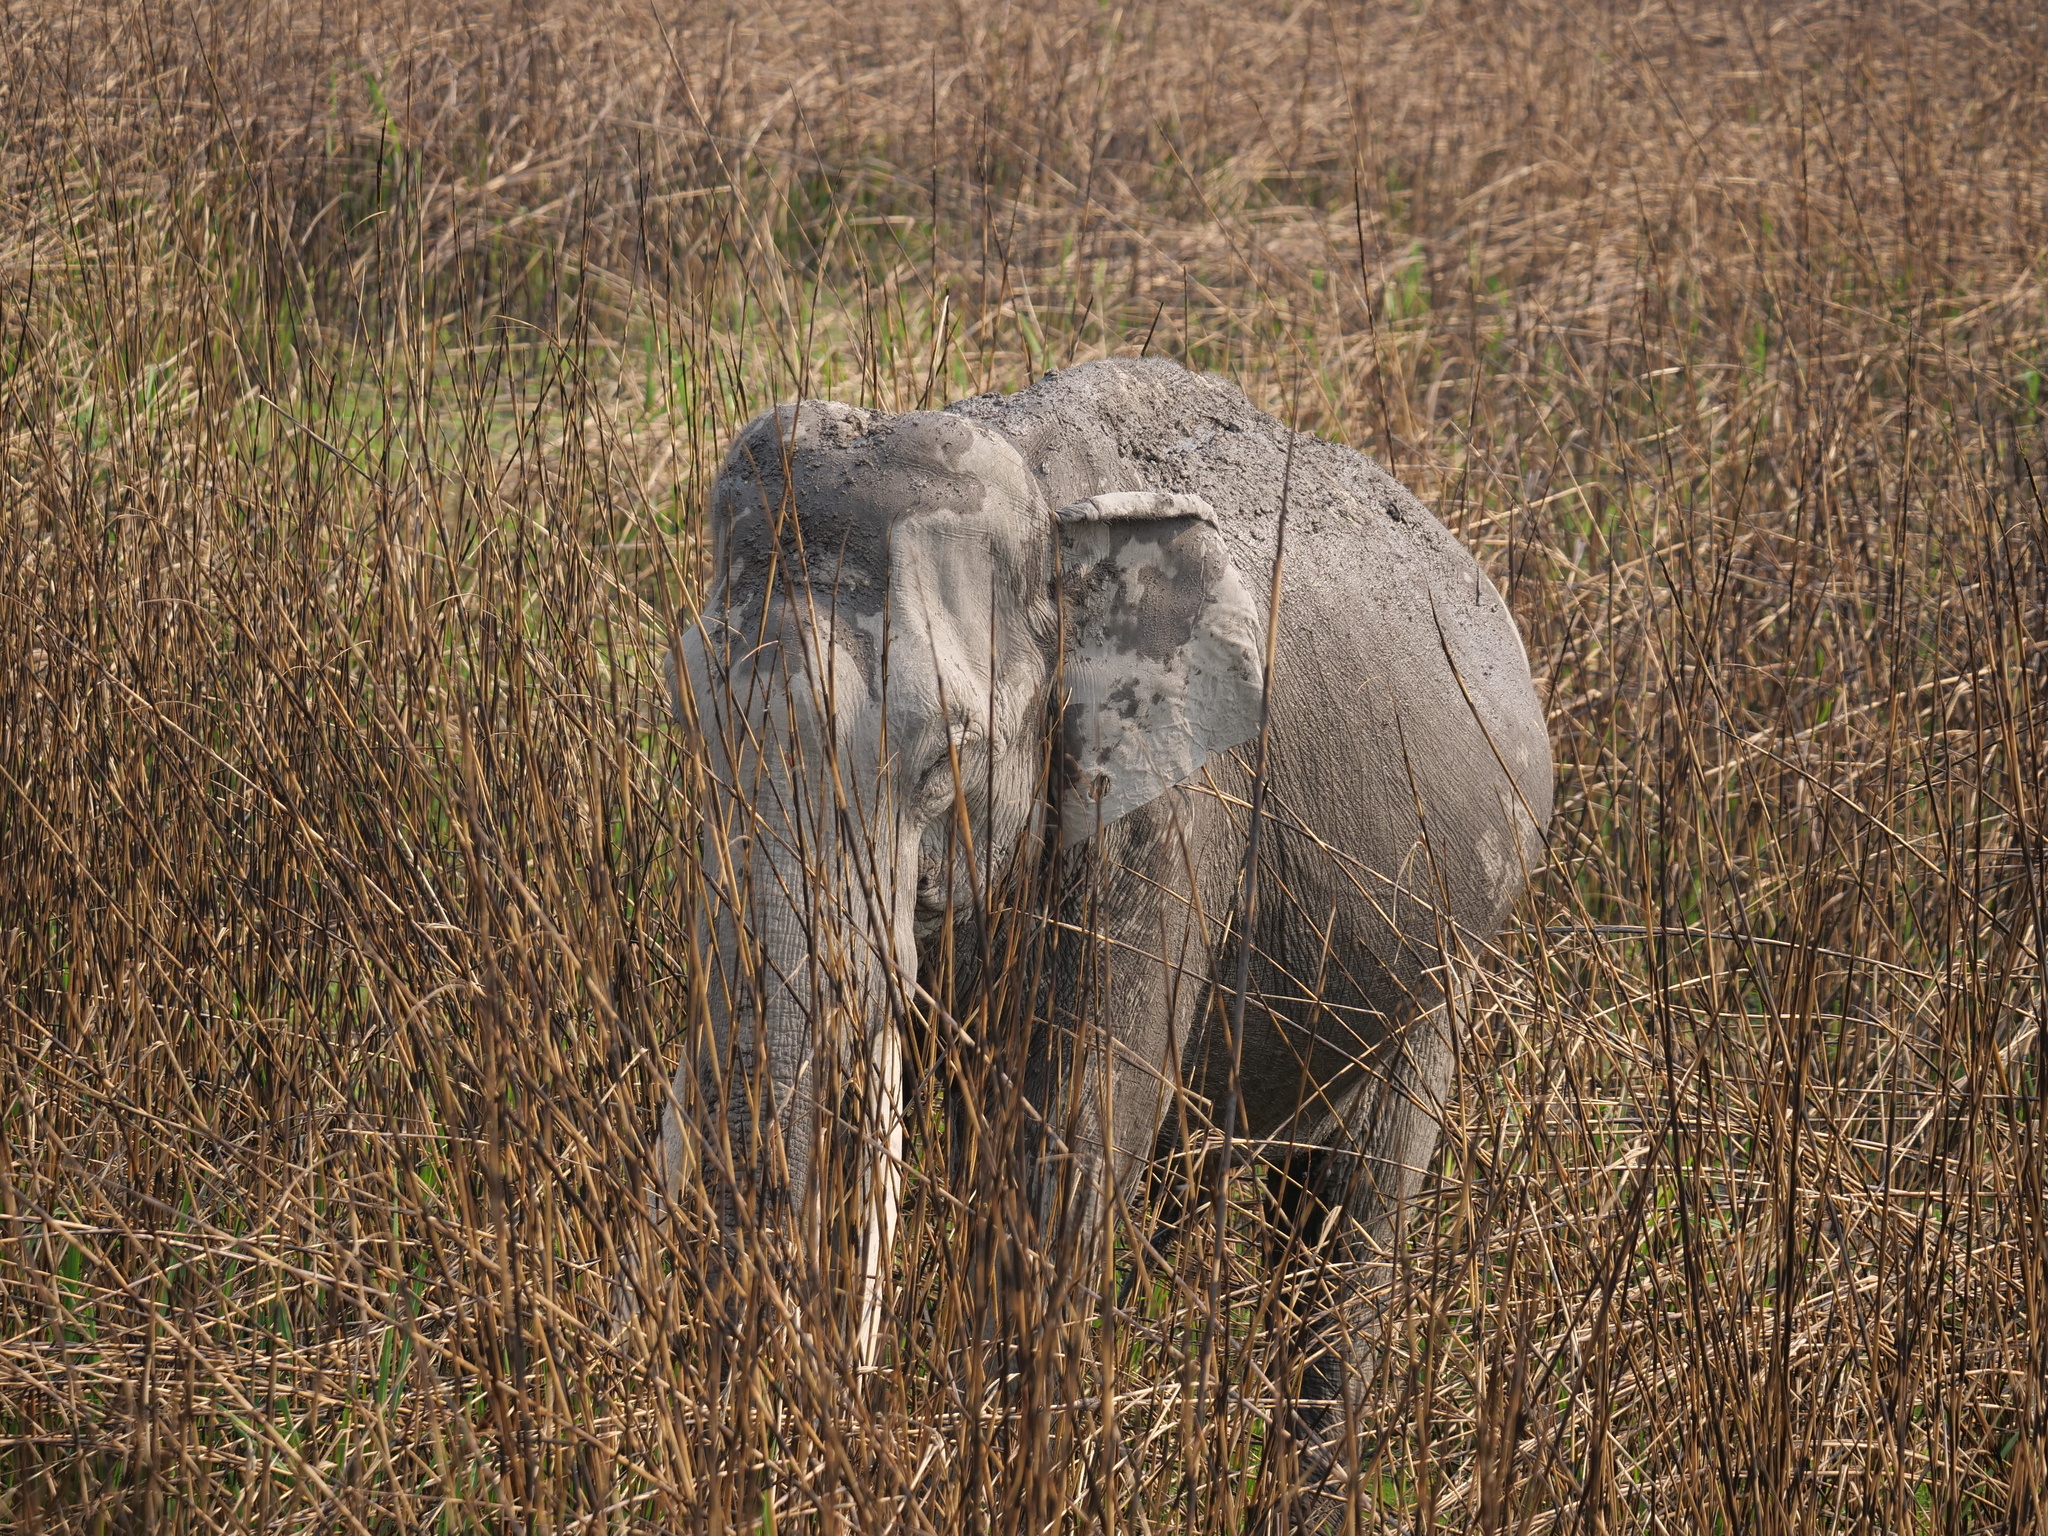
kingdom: Animalia
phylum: Chordata
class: Mammalia
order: Proboscidea
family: Elephantidae
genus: Elephas
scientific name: Elephas maximus
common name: Asian elephant
